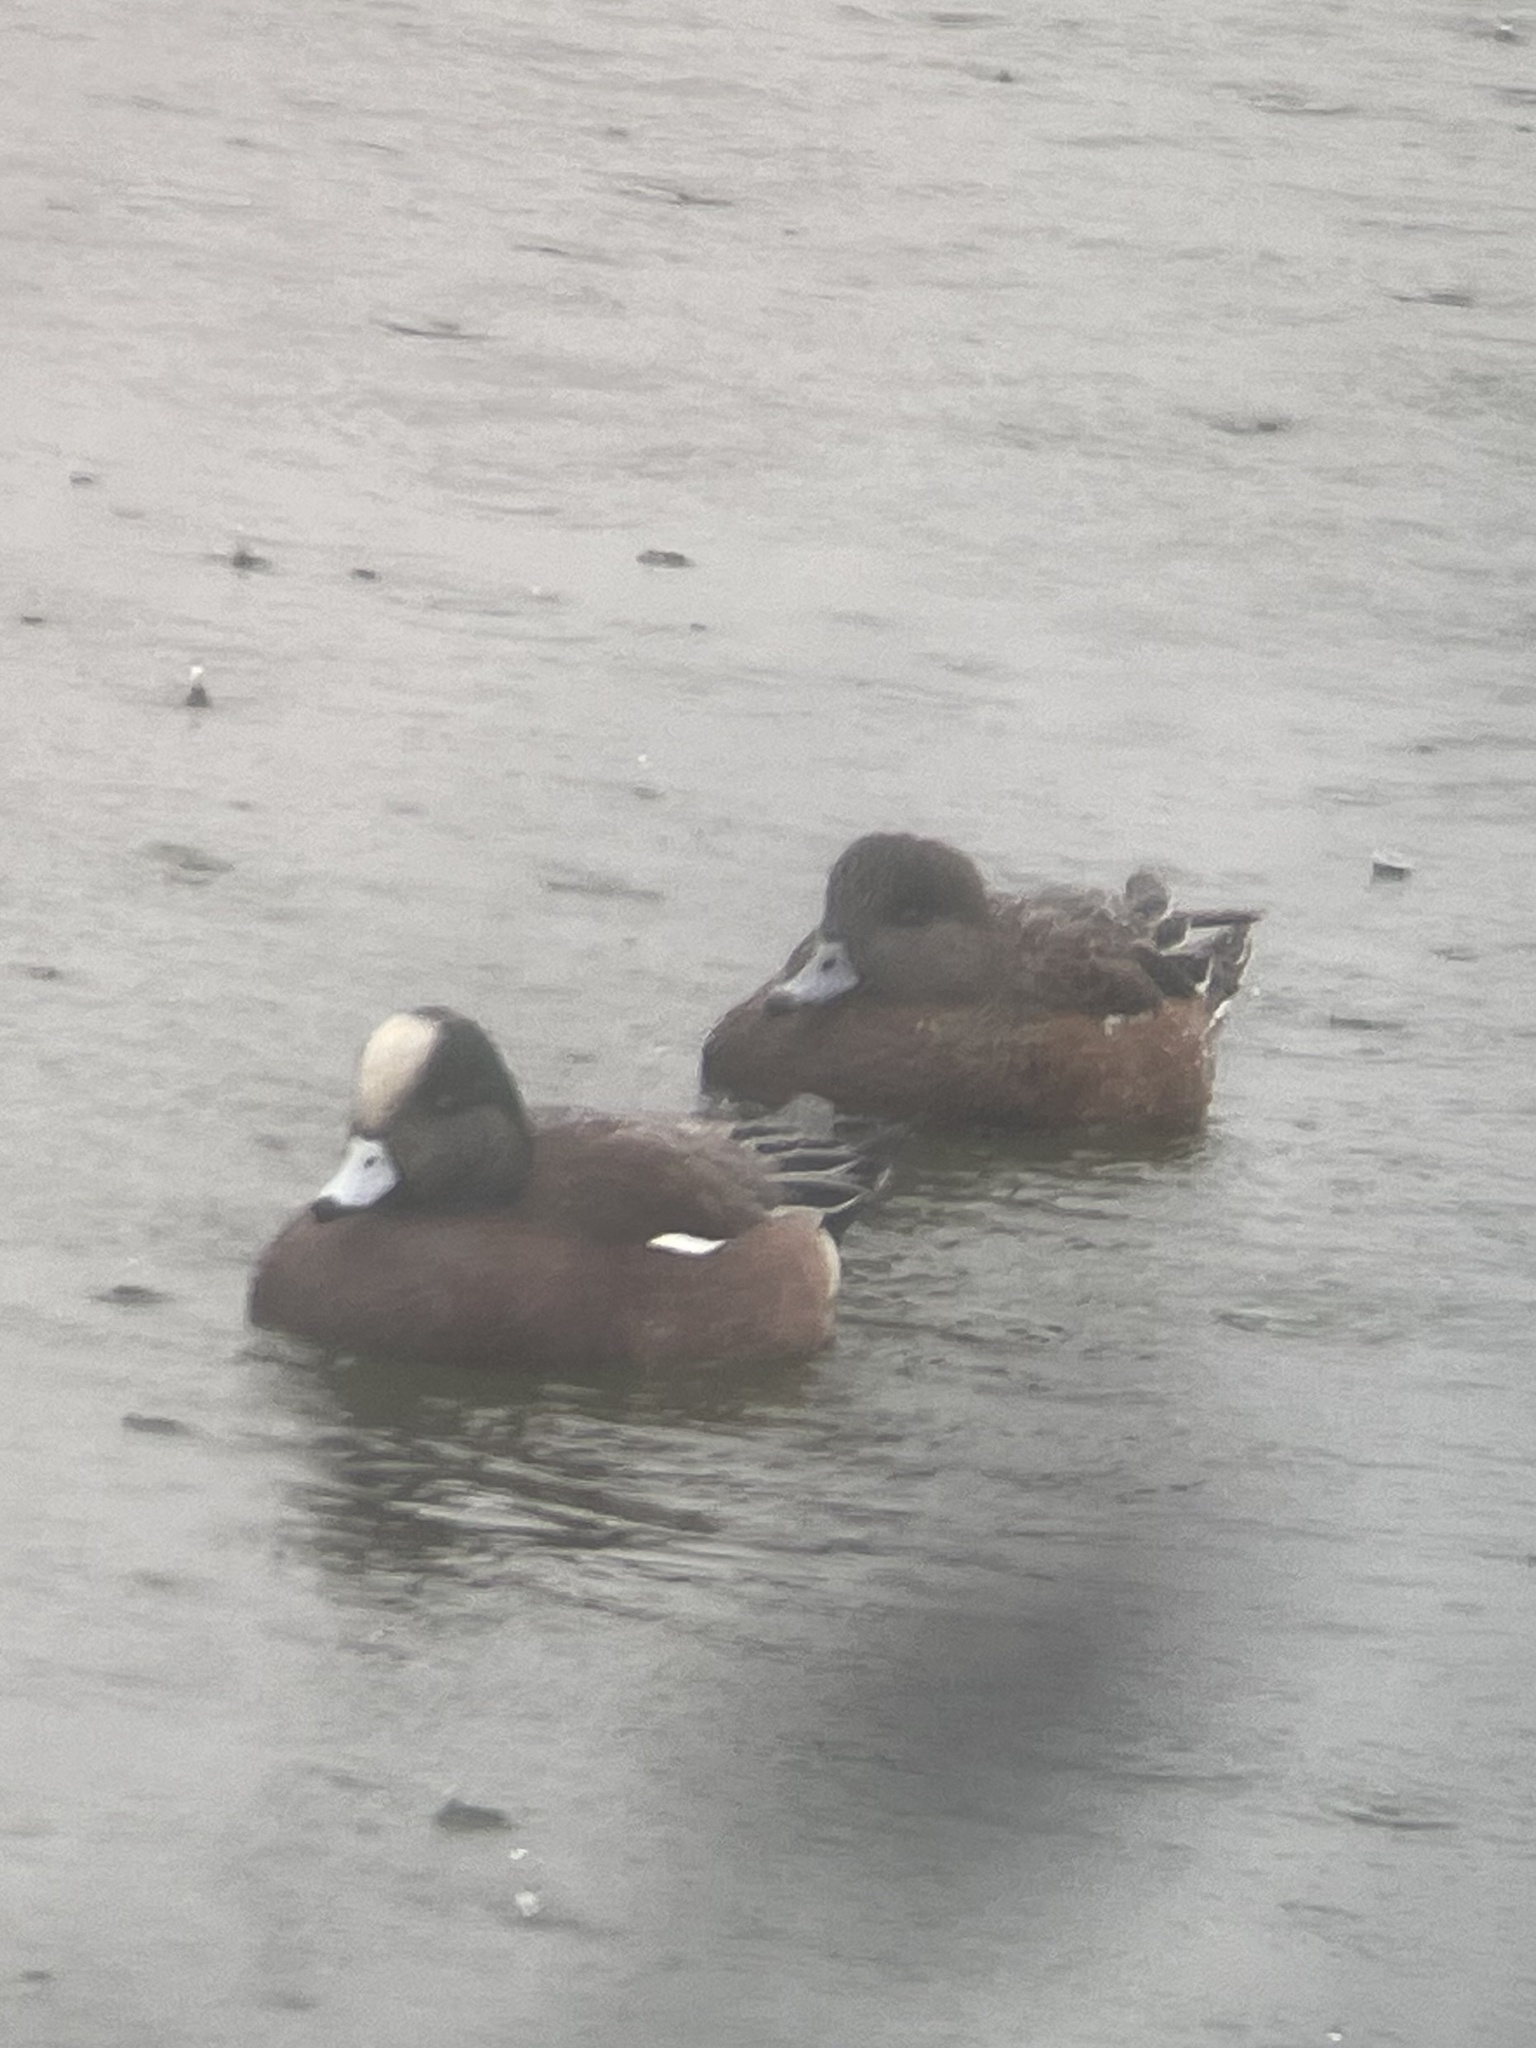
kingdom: Animalia
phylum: Chordata
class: Aves
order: Anseriformes
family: Anatidae
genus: Mareca
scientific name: Mareca americana
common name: American wigeon
